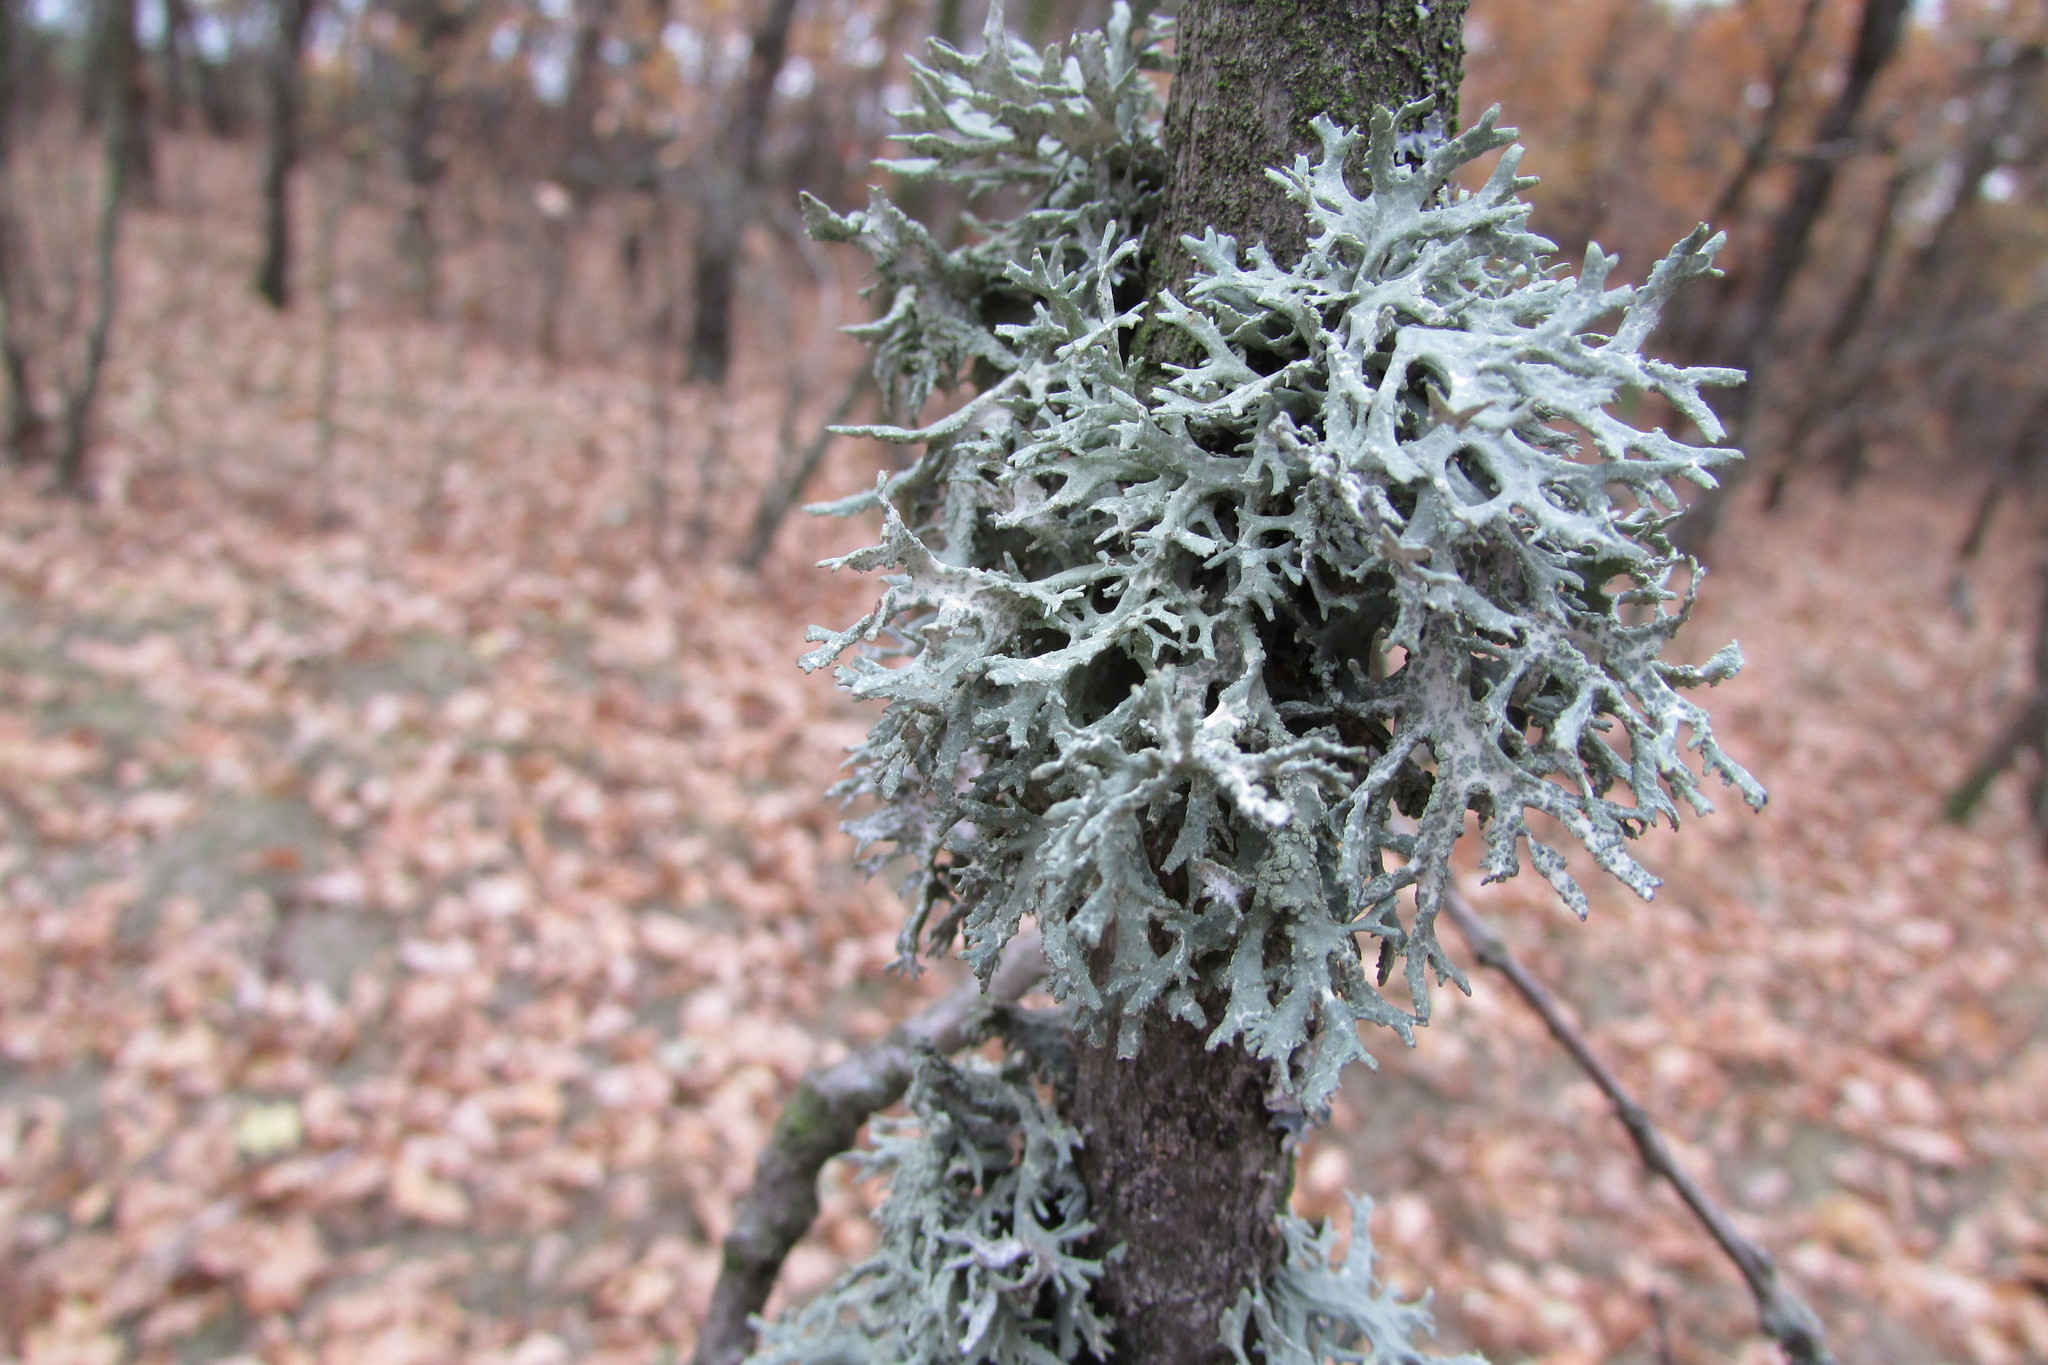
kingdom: Fungi
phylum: Ascomycota
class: Lecanoromycetes
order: Lecanorales
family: Parmeliaceae
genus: Evernia
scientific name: Evernia prunastri
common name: Oak moss
